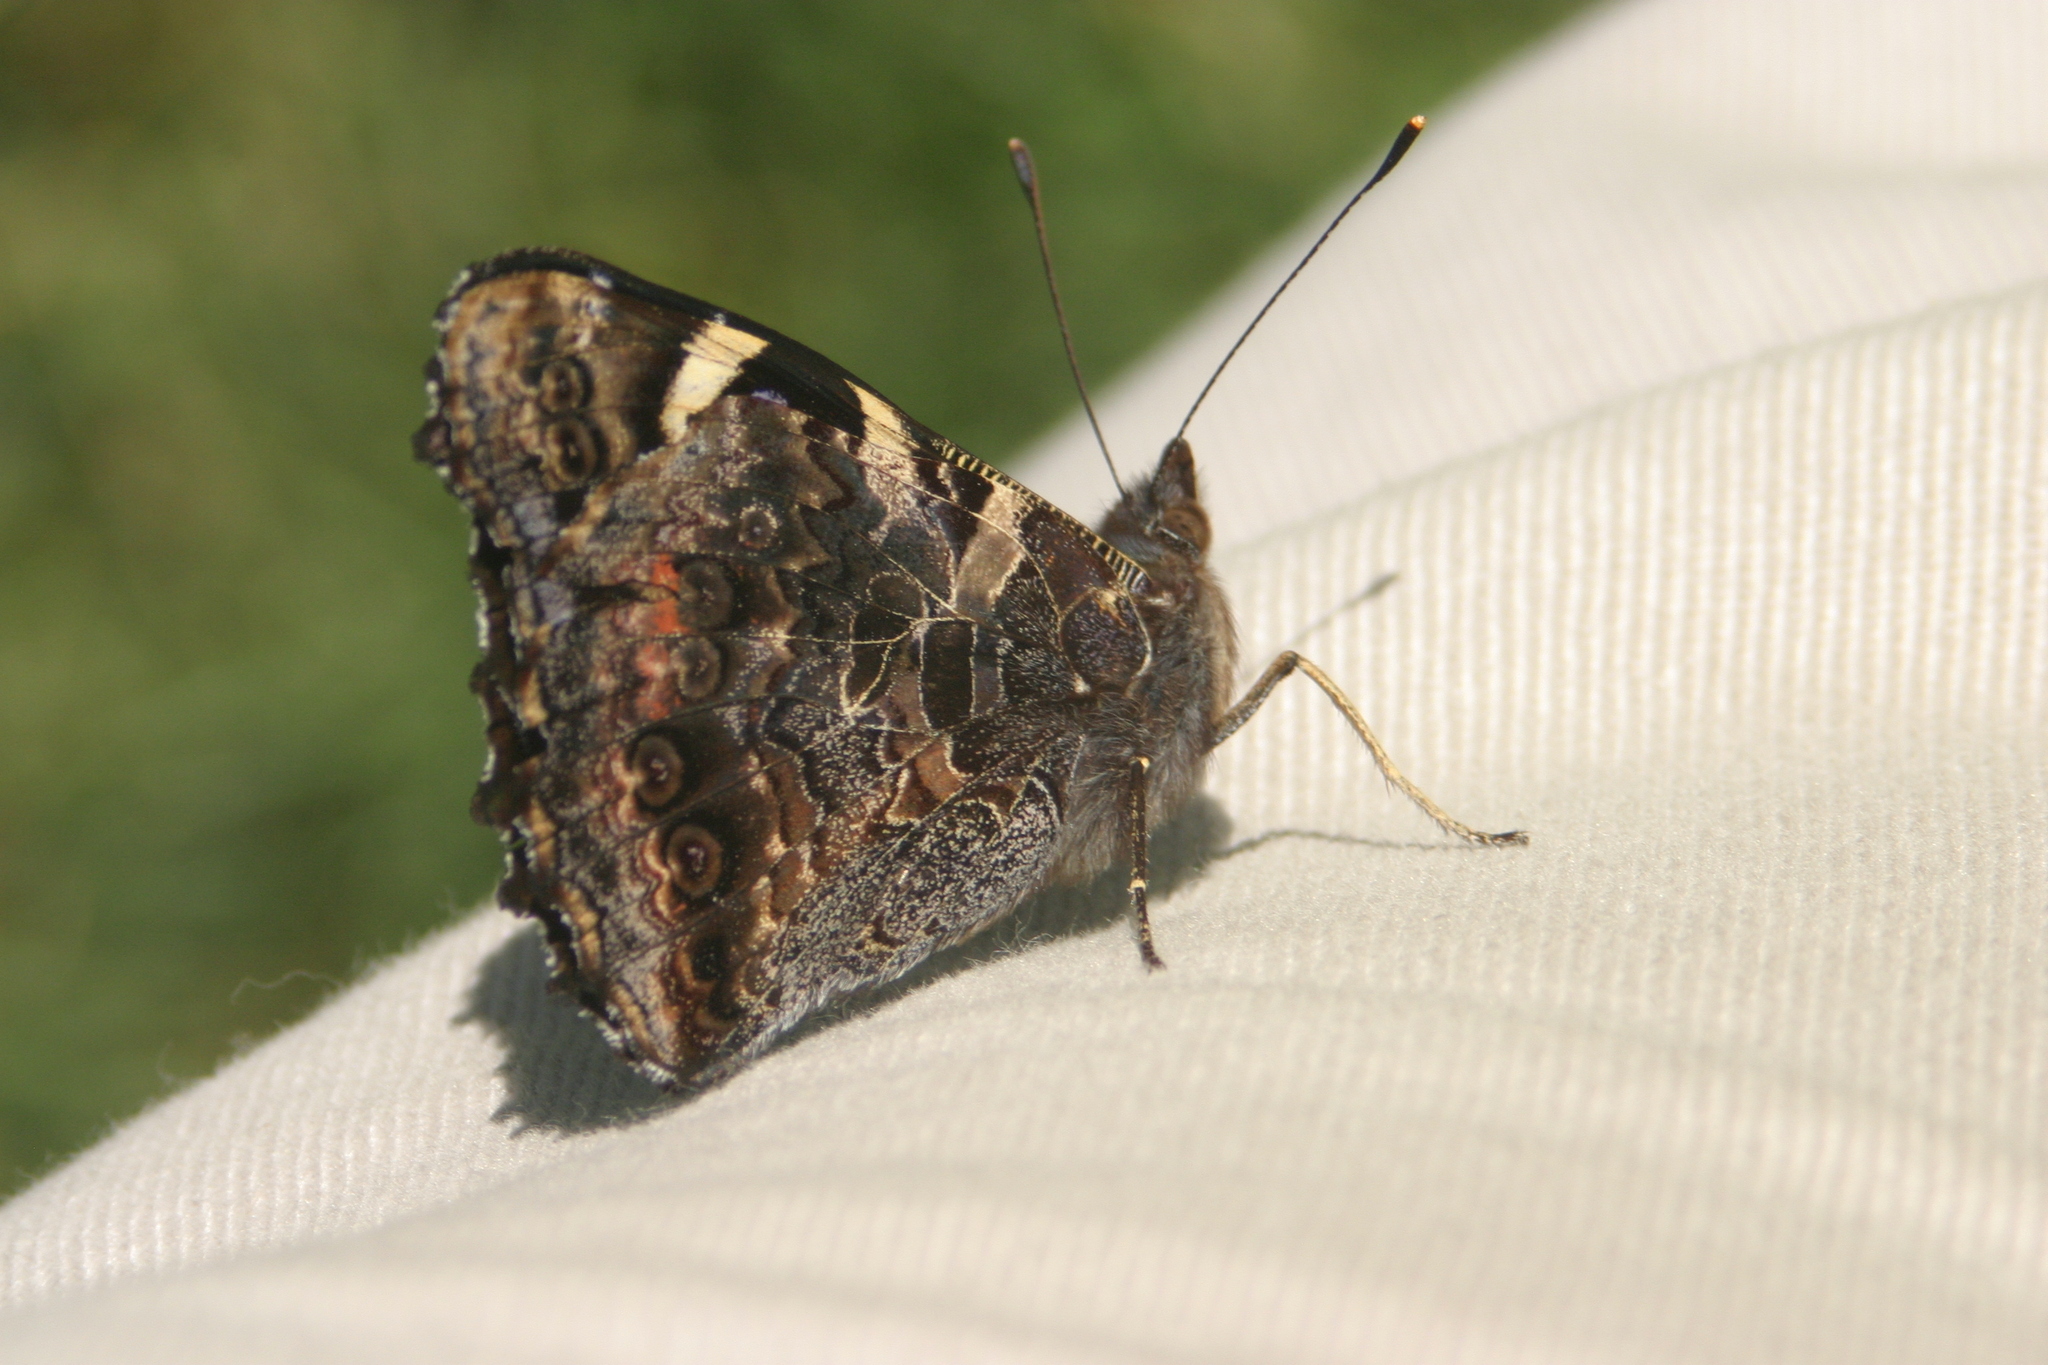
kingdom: Animalia
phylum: Arthropoda
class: Insecta
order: Lepidoptera
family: Nymphalidae
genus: Vanessa
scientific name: Vanessa gonerilla
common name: New zealand red admiral
